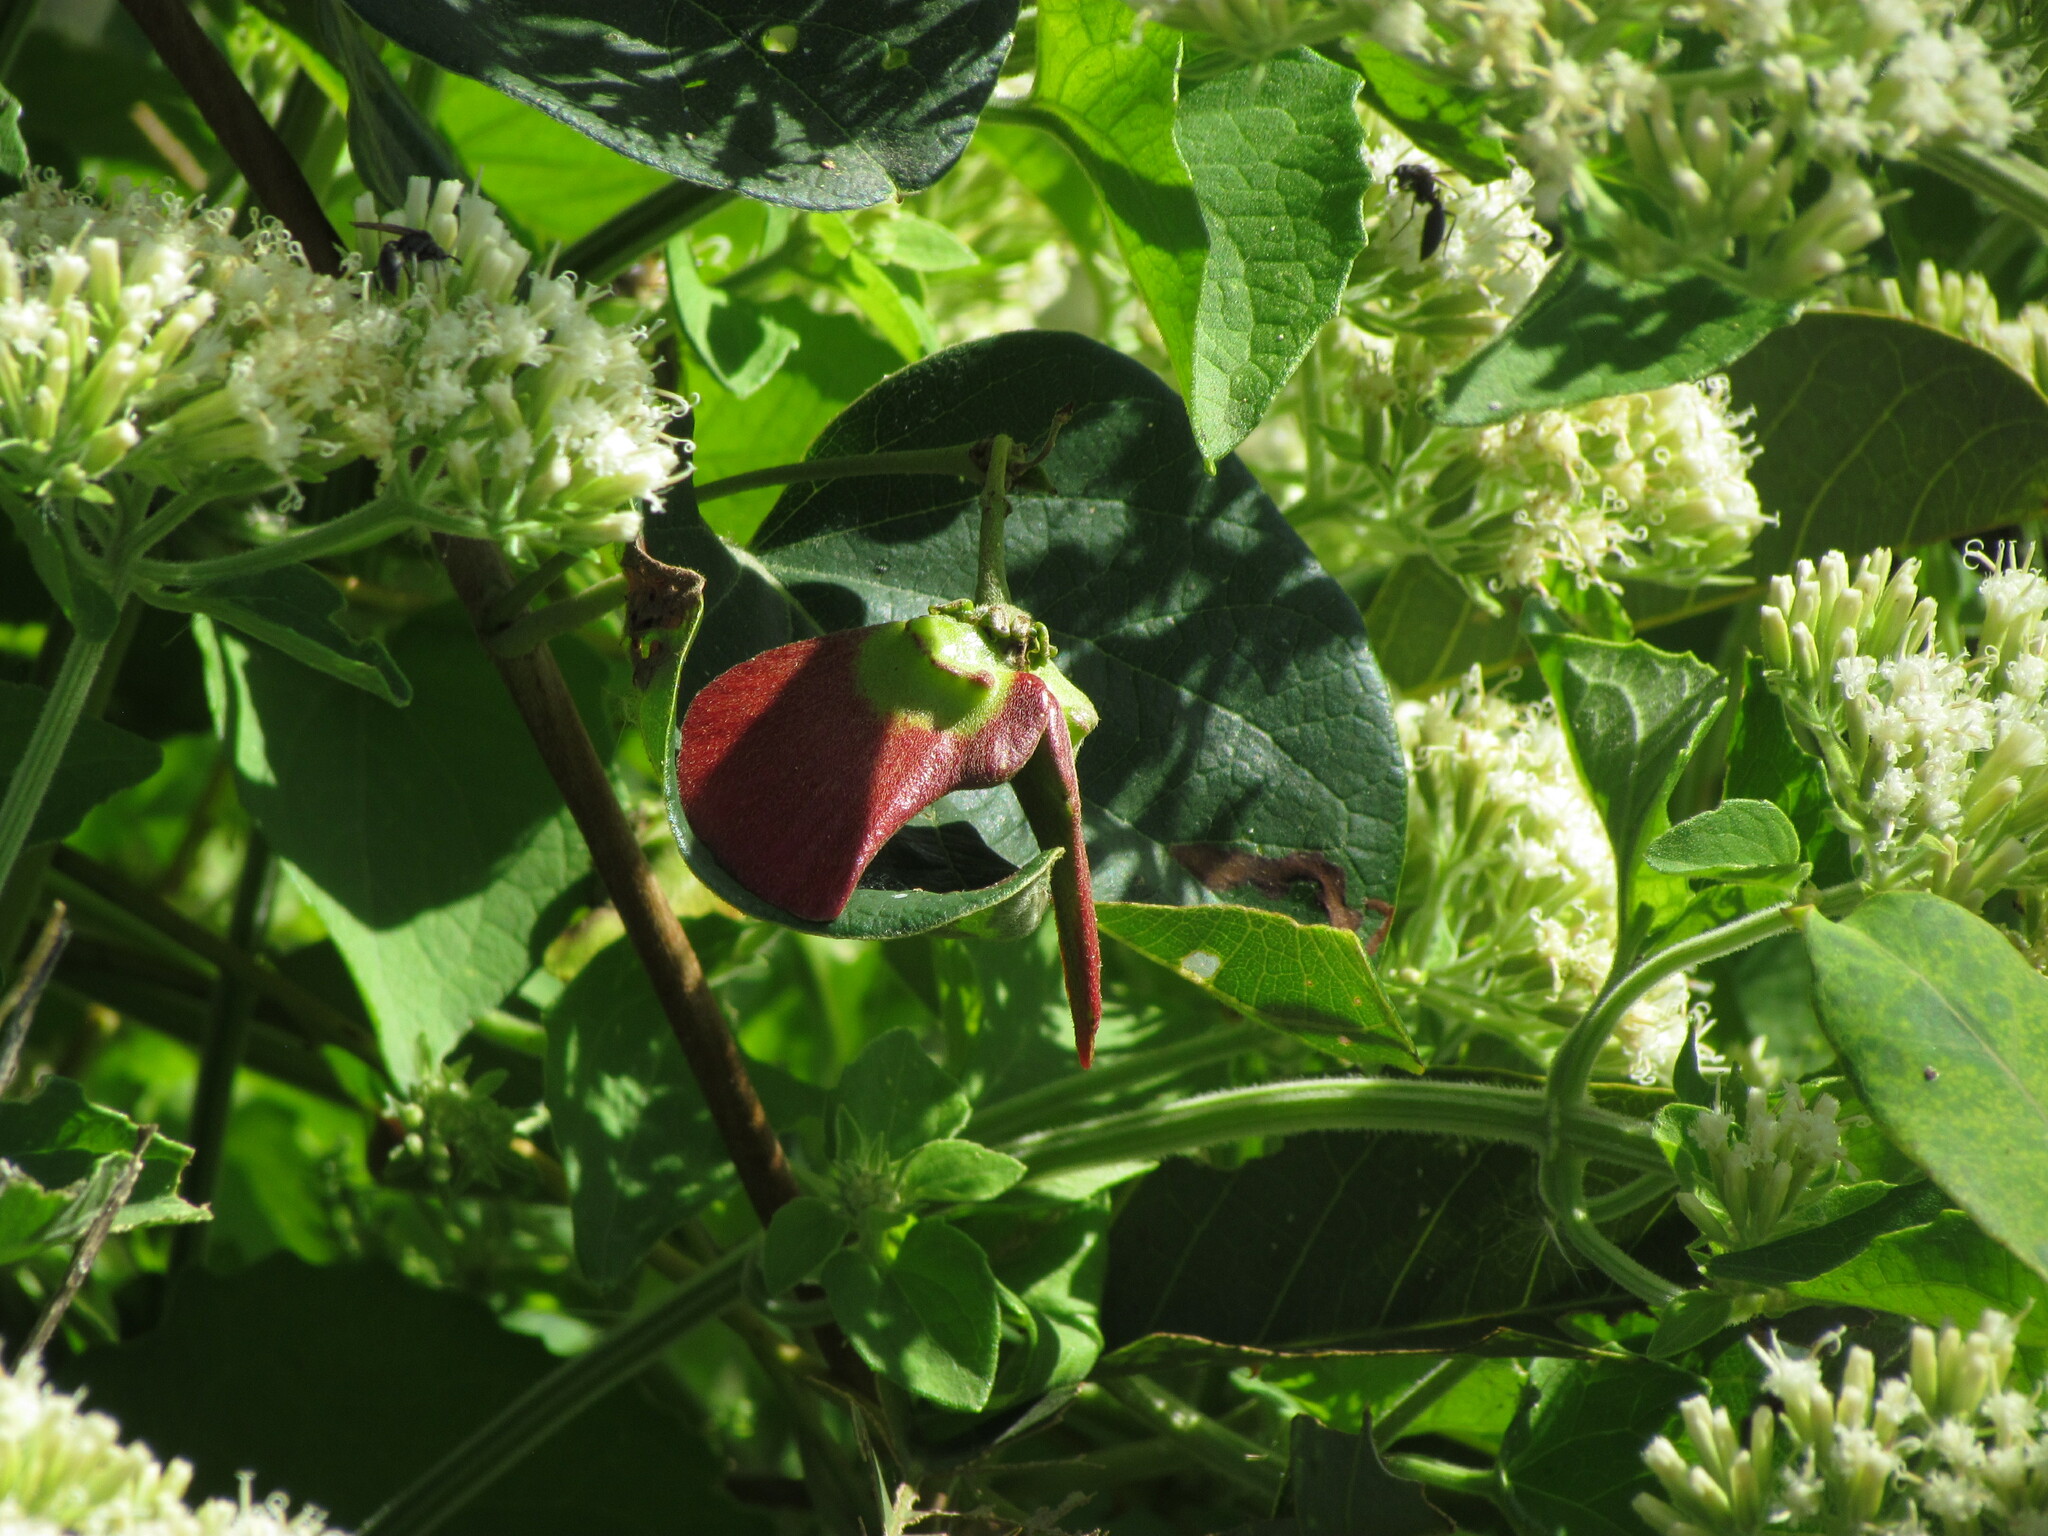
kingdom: Plantae
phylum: Tracheophyta
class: Magnoliopsida
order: Malpighiales
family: Malpighiaceae
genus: Stigmaphyllon
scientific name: Stigmaphyllon bonariense
